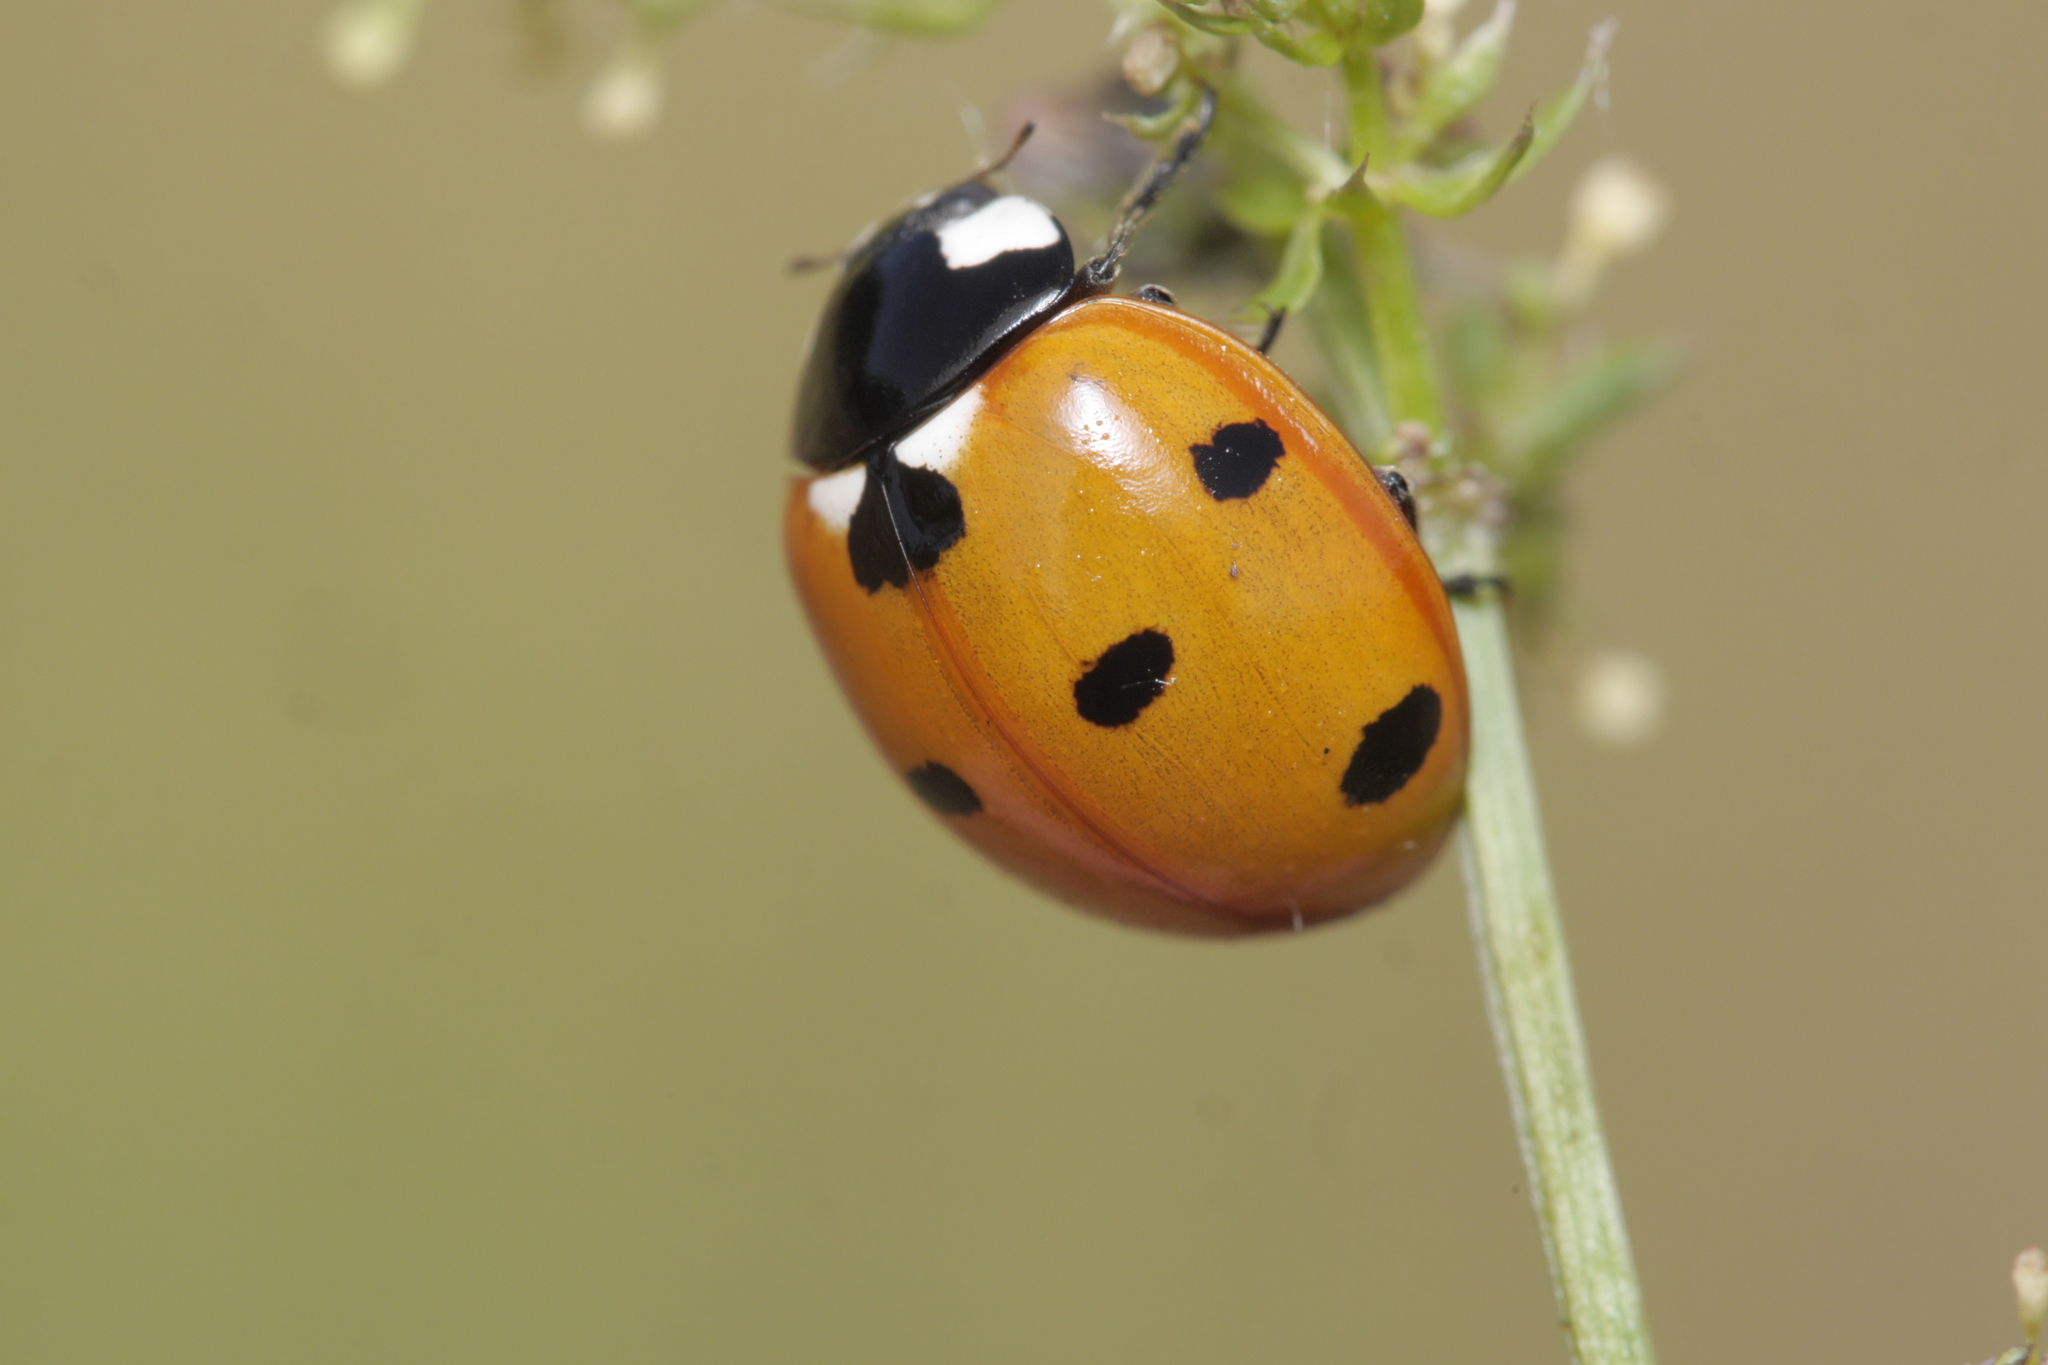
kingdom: Animalia
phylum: Arthropoda
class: Insecta
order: Coleoptera
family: Coccinellidae
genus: Coccinella
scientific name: Coccinella septempunctata
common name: Sevenspotted lady beetle
